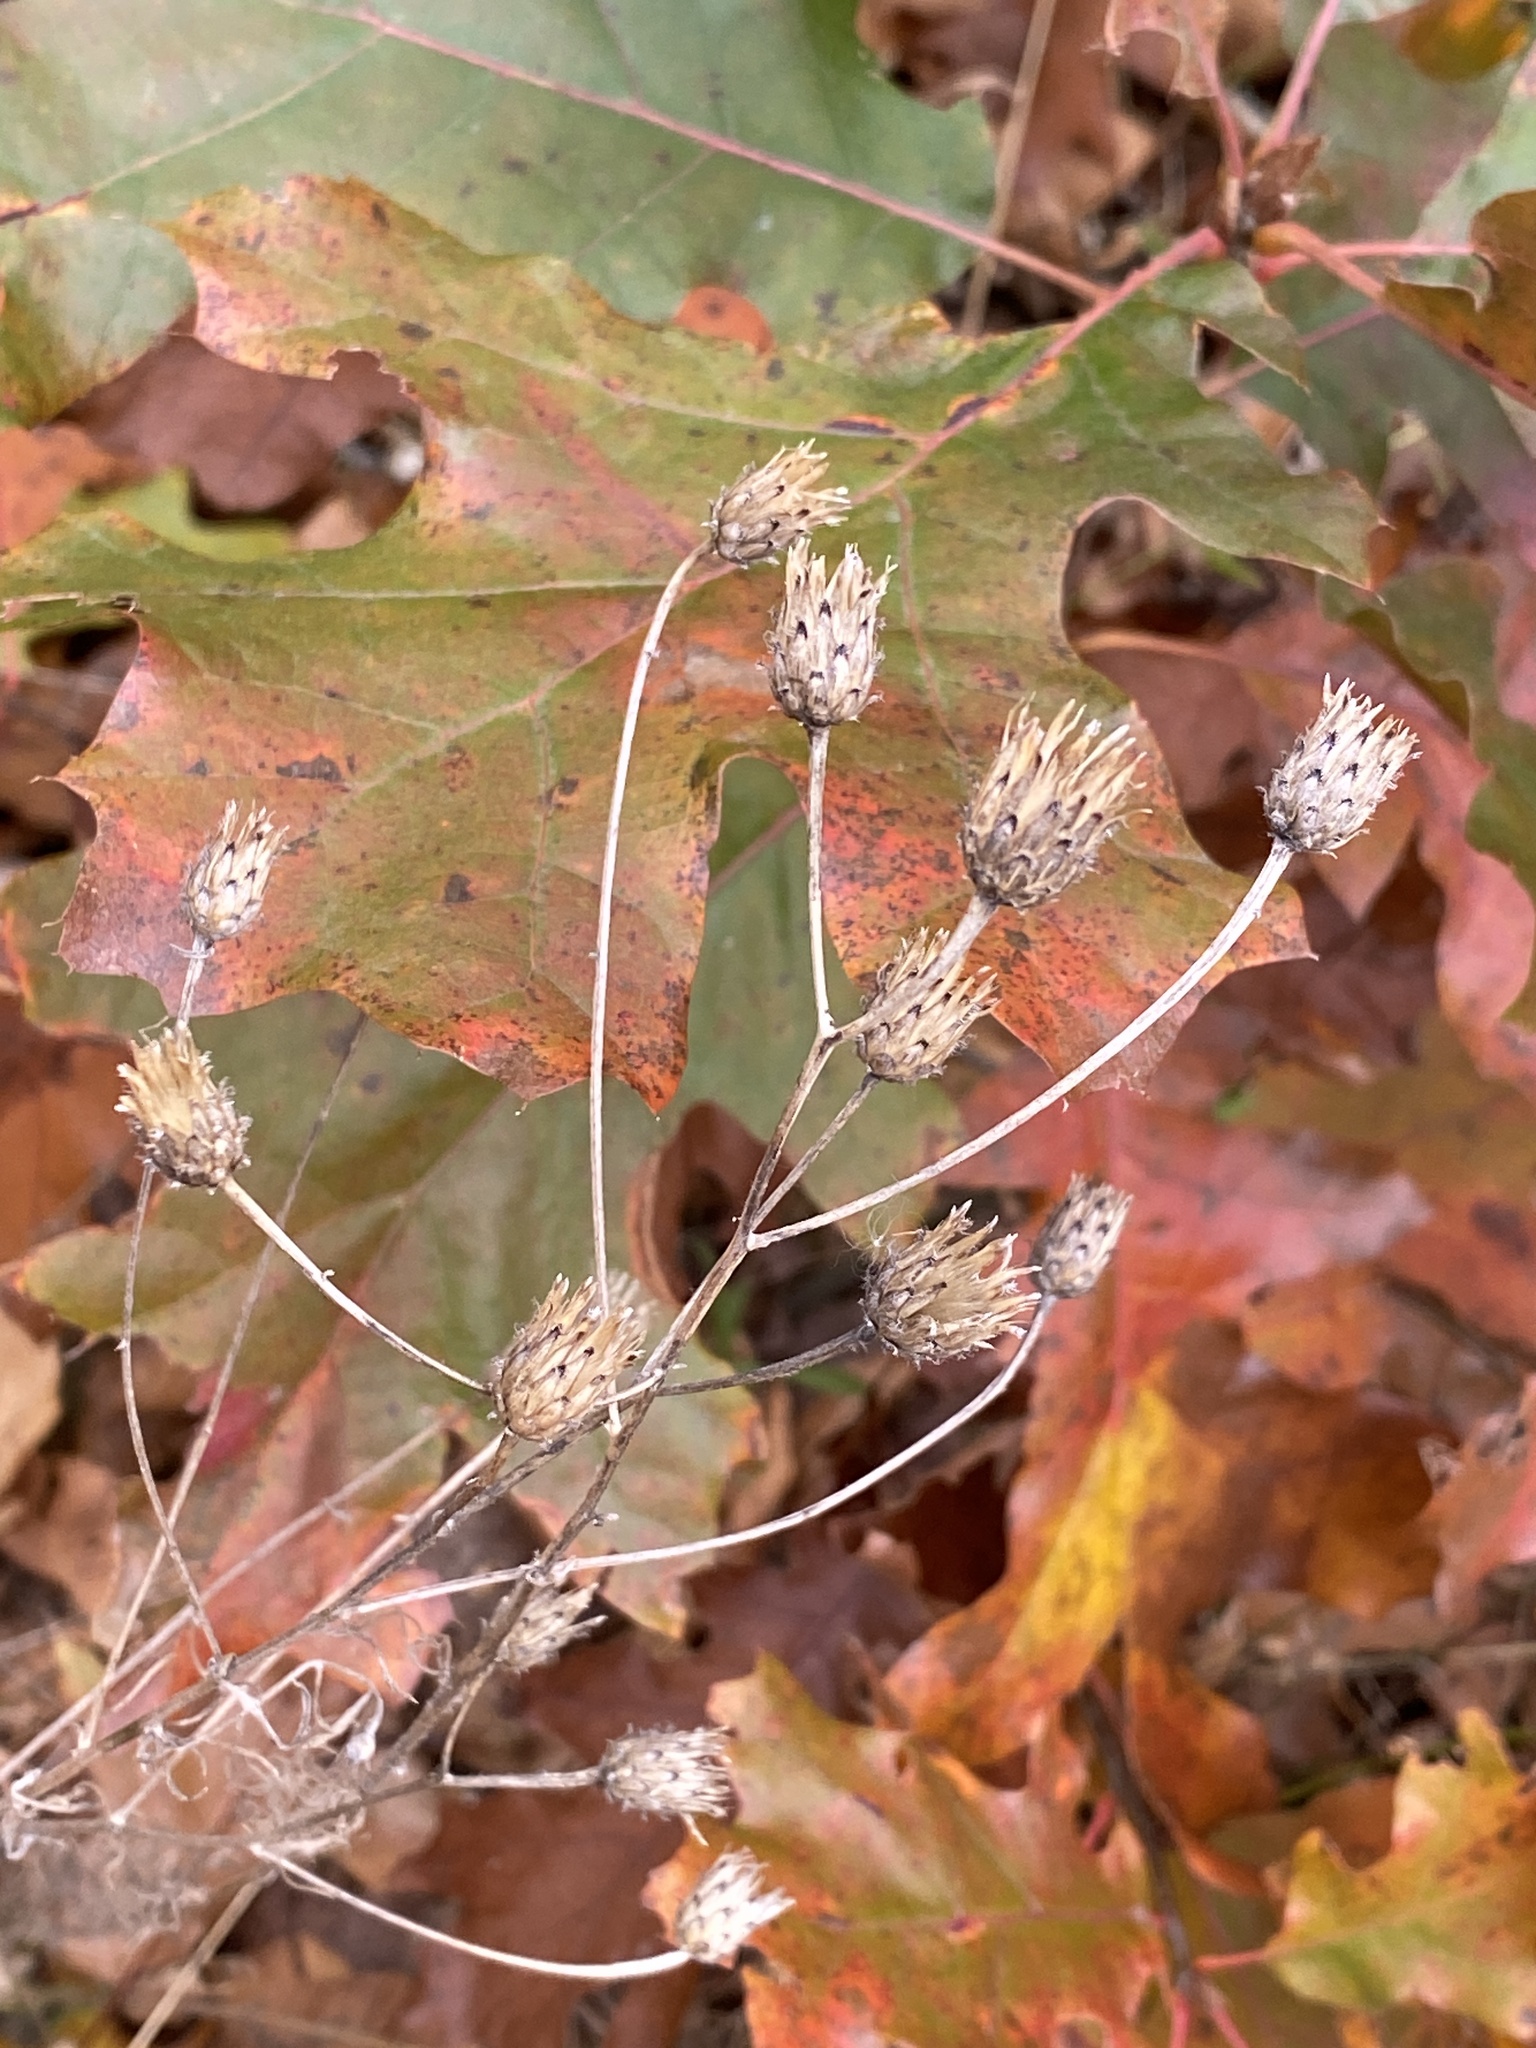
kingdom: Plantae
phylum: Tracheophyta
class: Magnoliopsida
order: Asterales
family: Asteraceae
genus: Centaurea
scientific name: Centaurea stoebe
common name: Spotted knapweed
